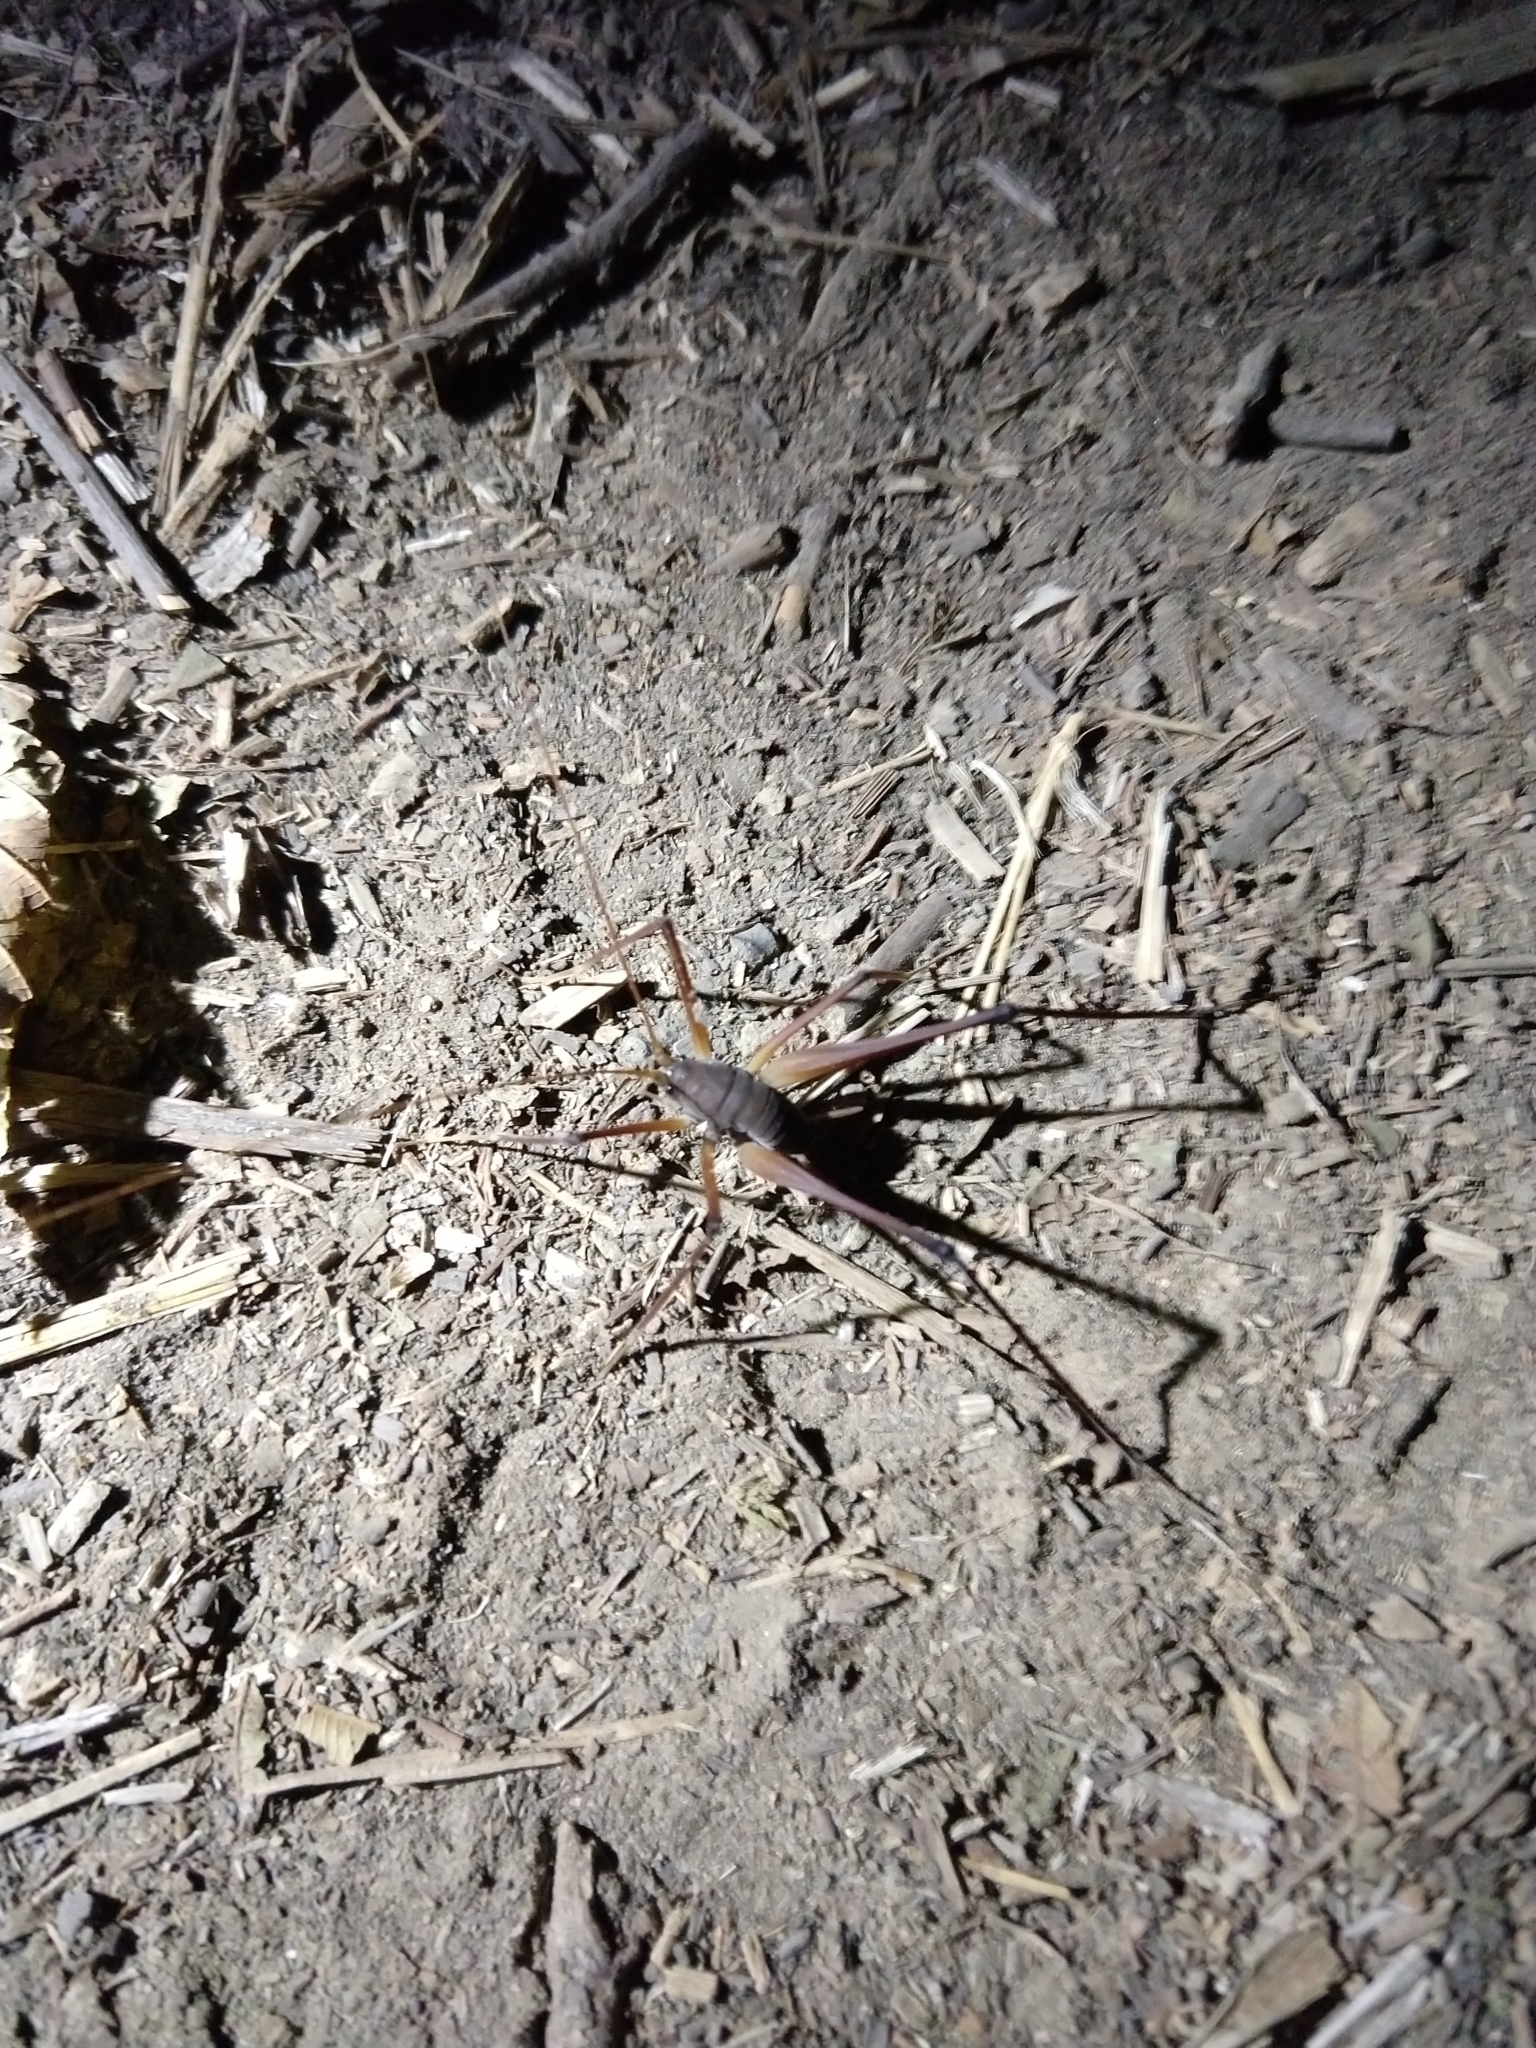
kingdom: Animalia
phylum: Arthropoda
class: Insecta
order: Orthoptera
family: Rhaphidophoridae
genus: Tropidischia
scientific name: Tropidischia xanthostoma
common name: Square-legged camel cricket
